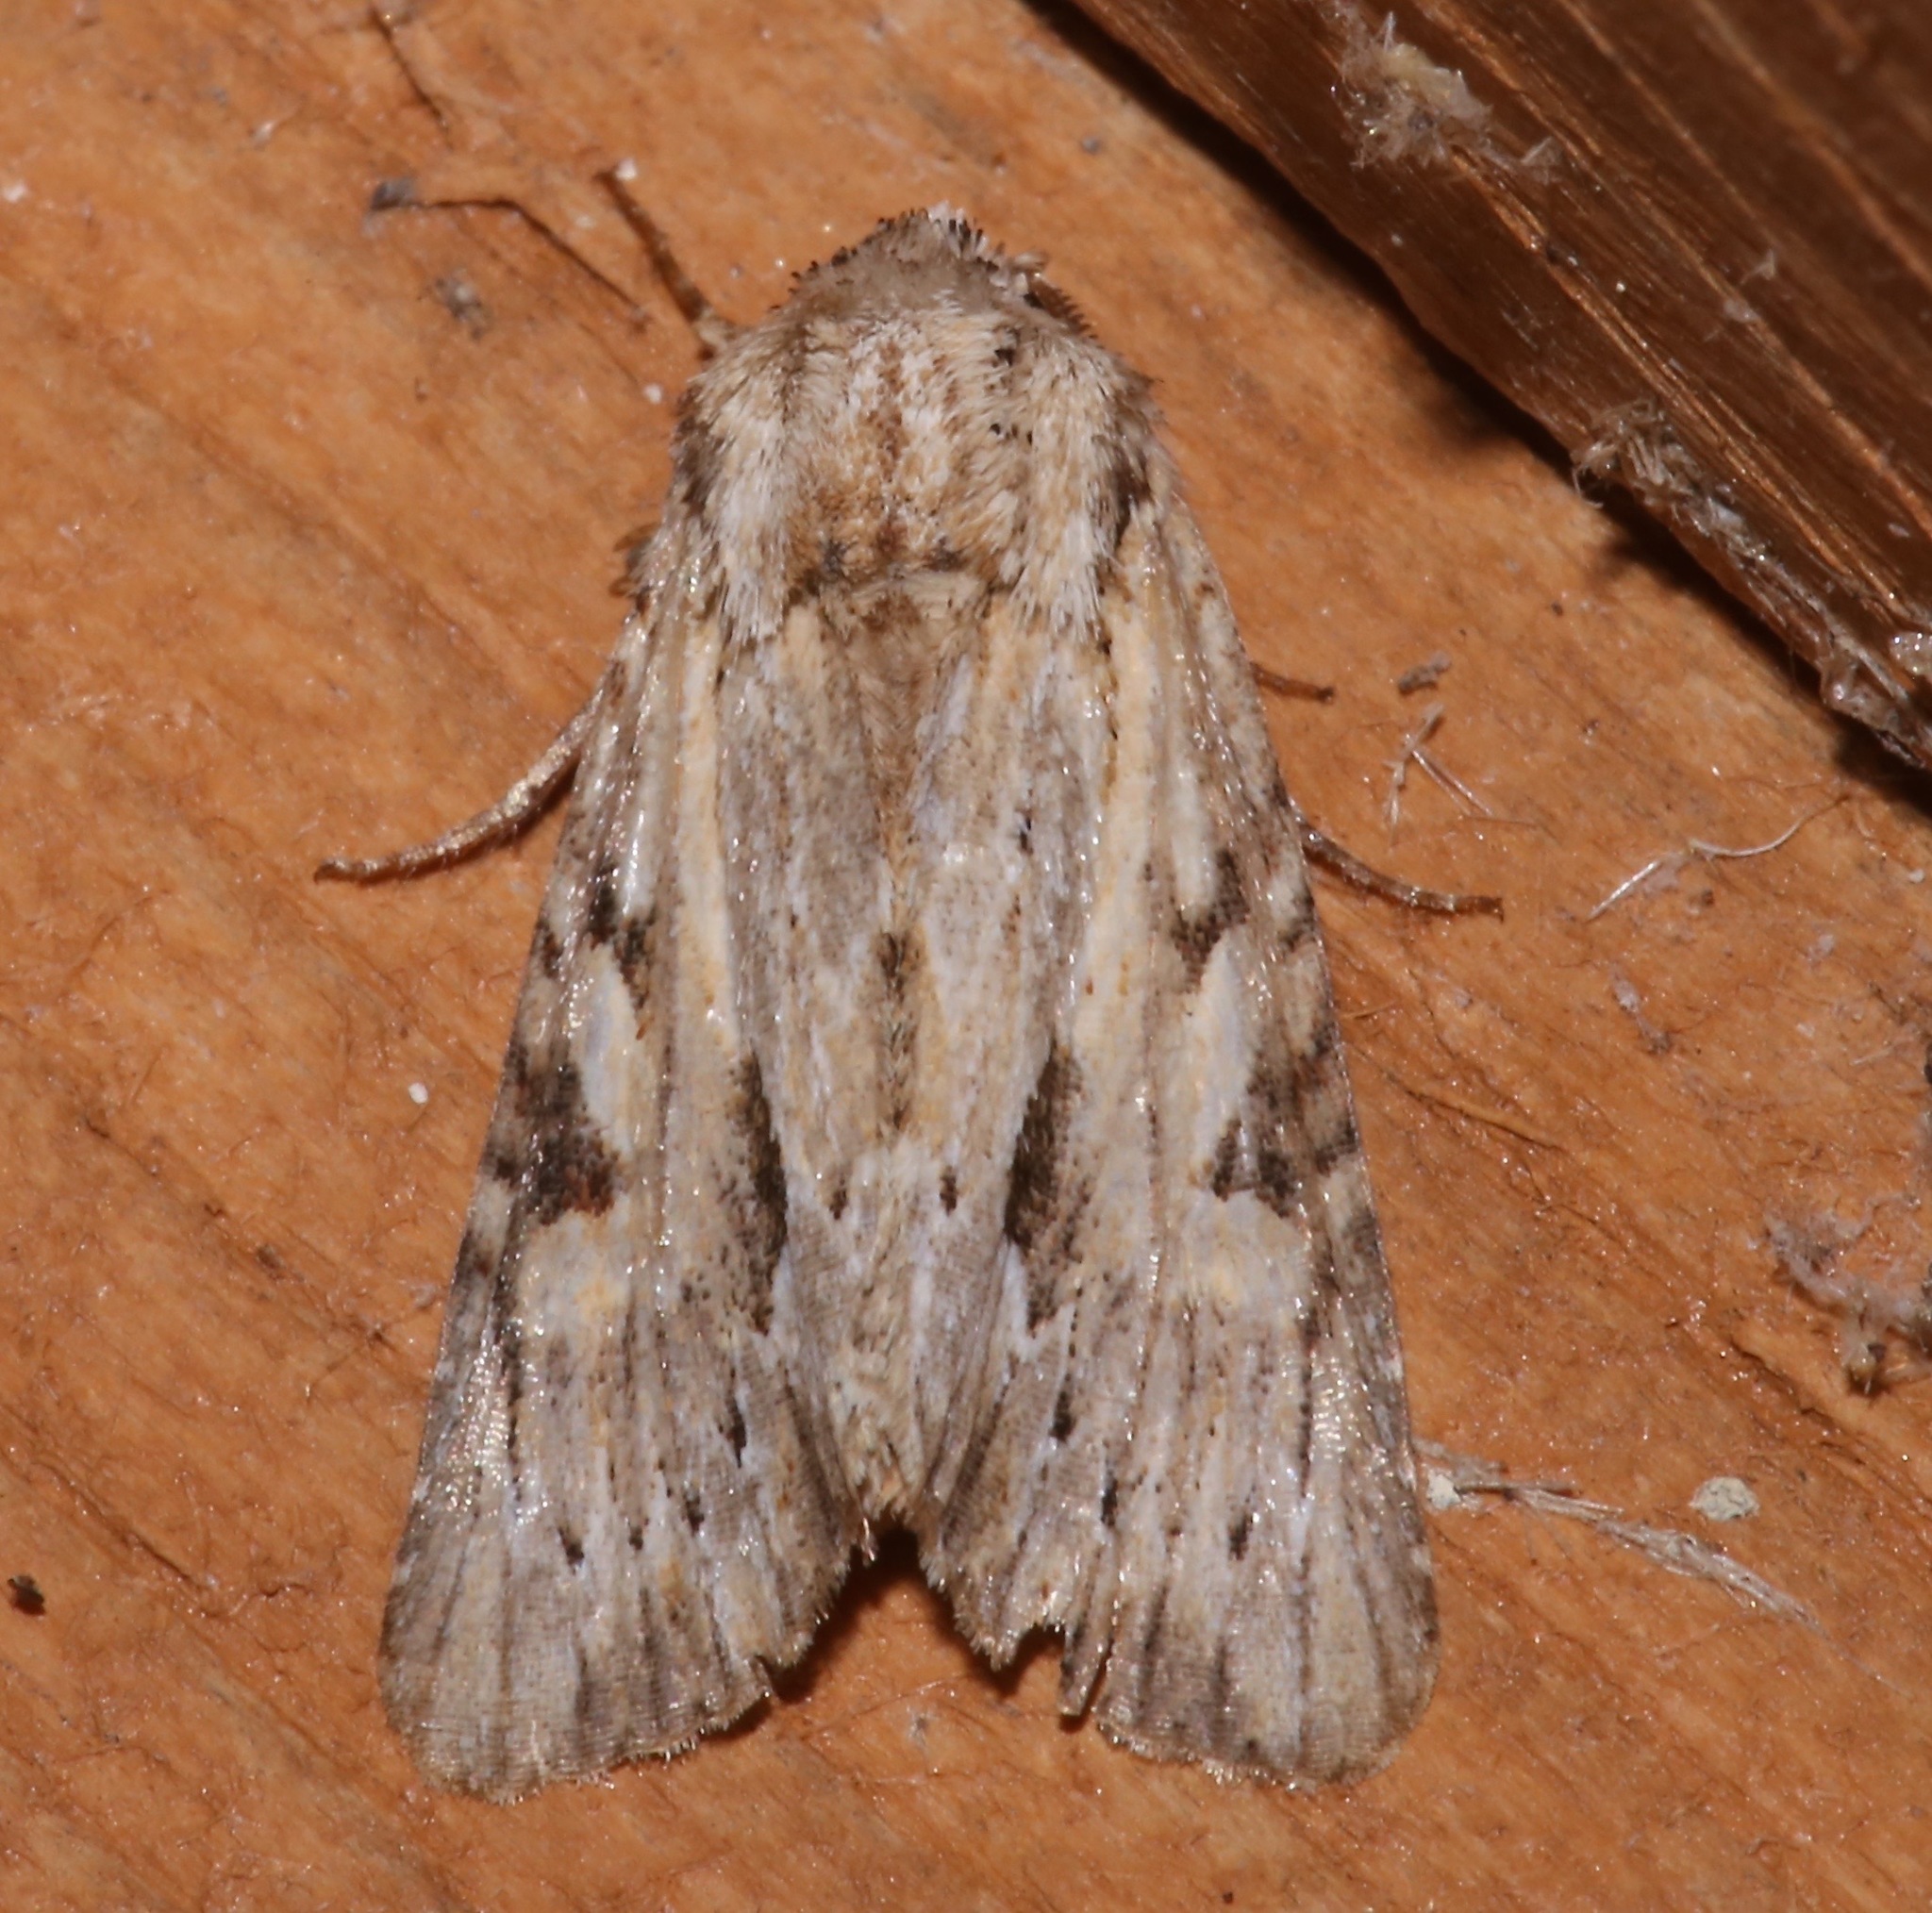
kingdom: Animalia
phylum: Arthropoda
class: Insecta
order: Lepidoptera
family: Noctuidae
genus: Achatia
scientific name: Achatia mucens
